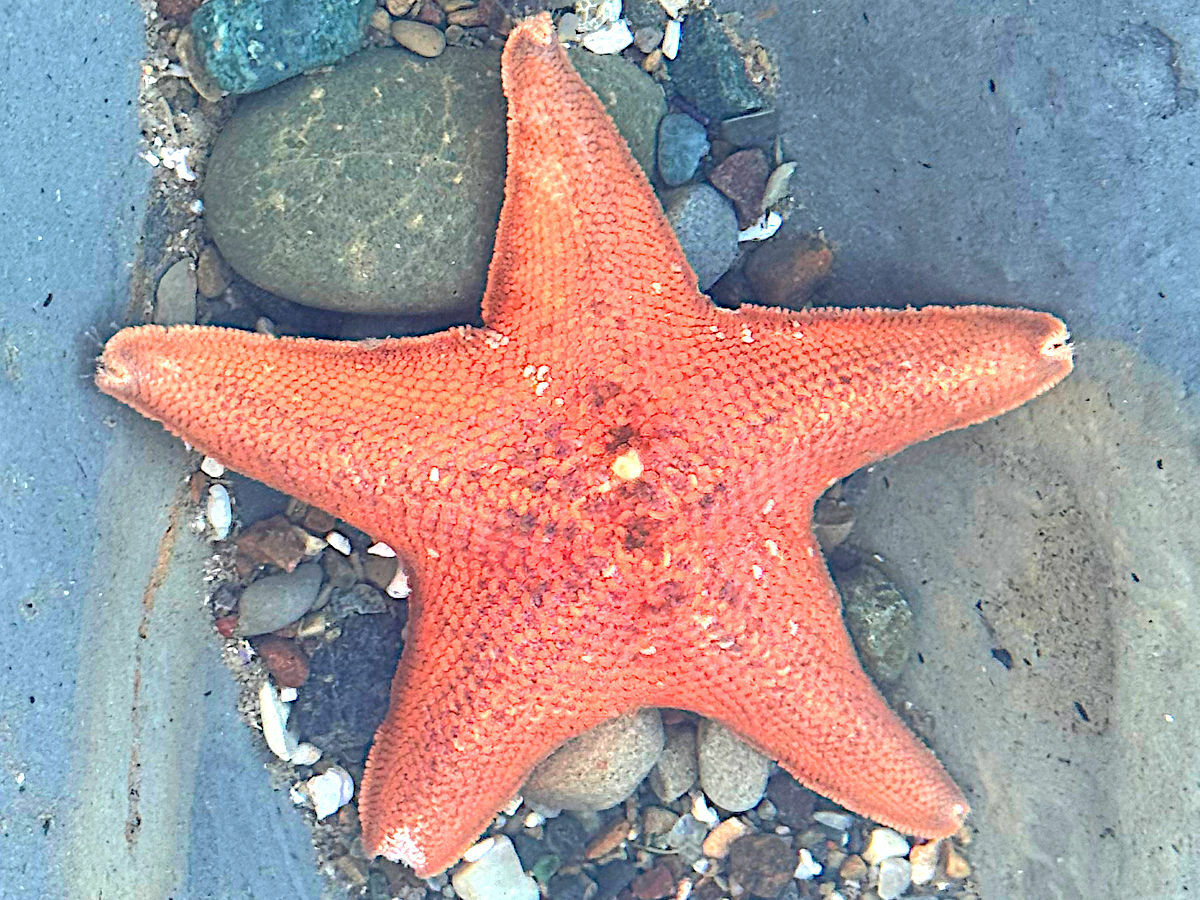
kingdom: Animalia
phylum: Echinodermata
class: Asteroidea
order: Valvatida
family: Asterinidae
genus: Patiria
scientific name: Patiria miniata
